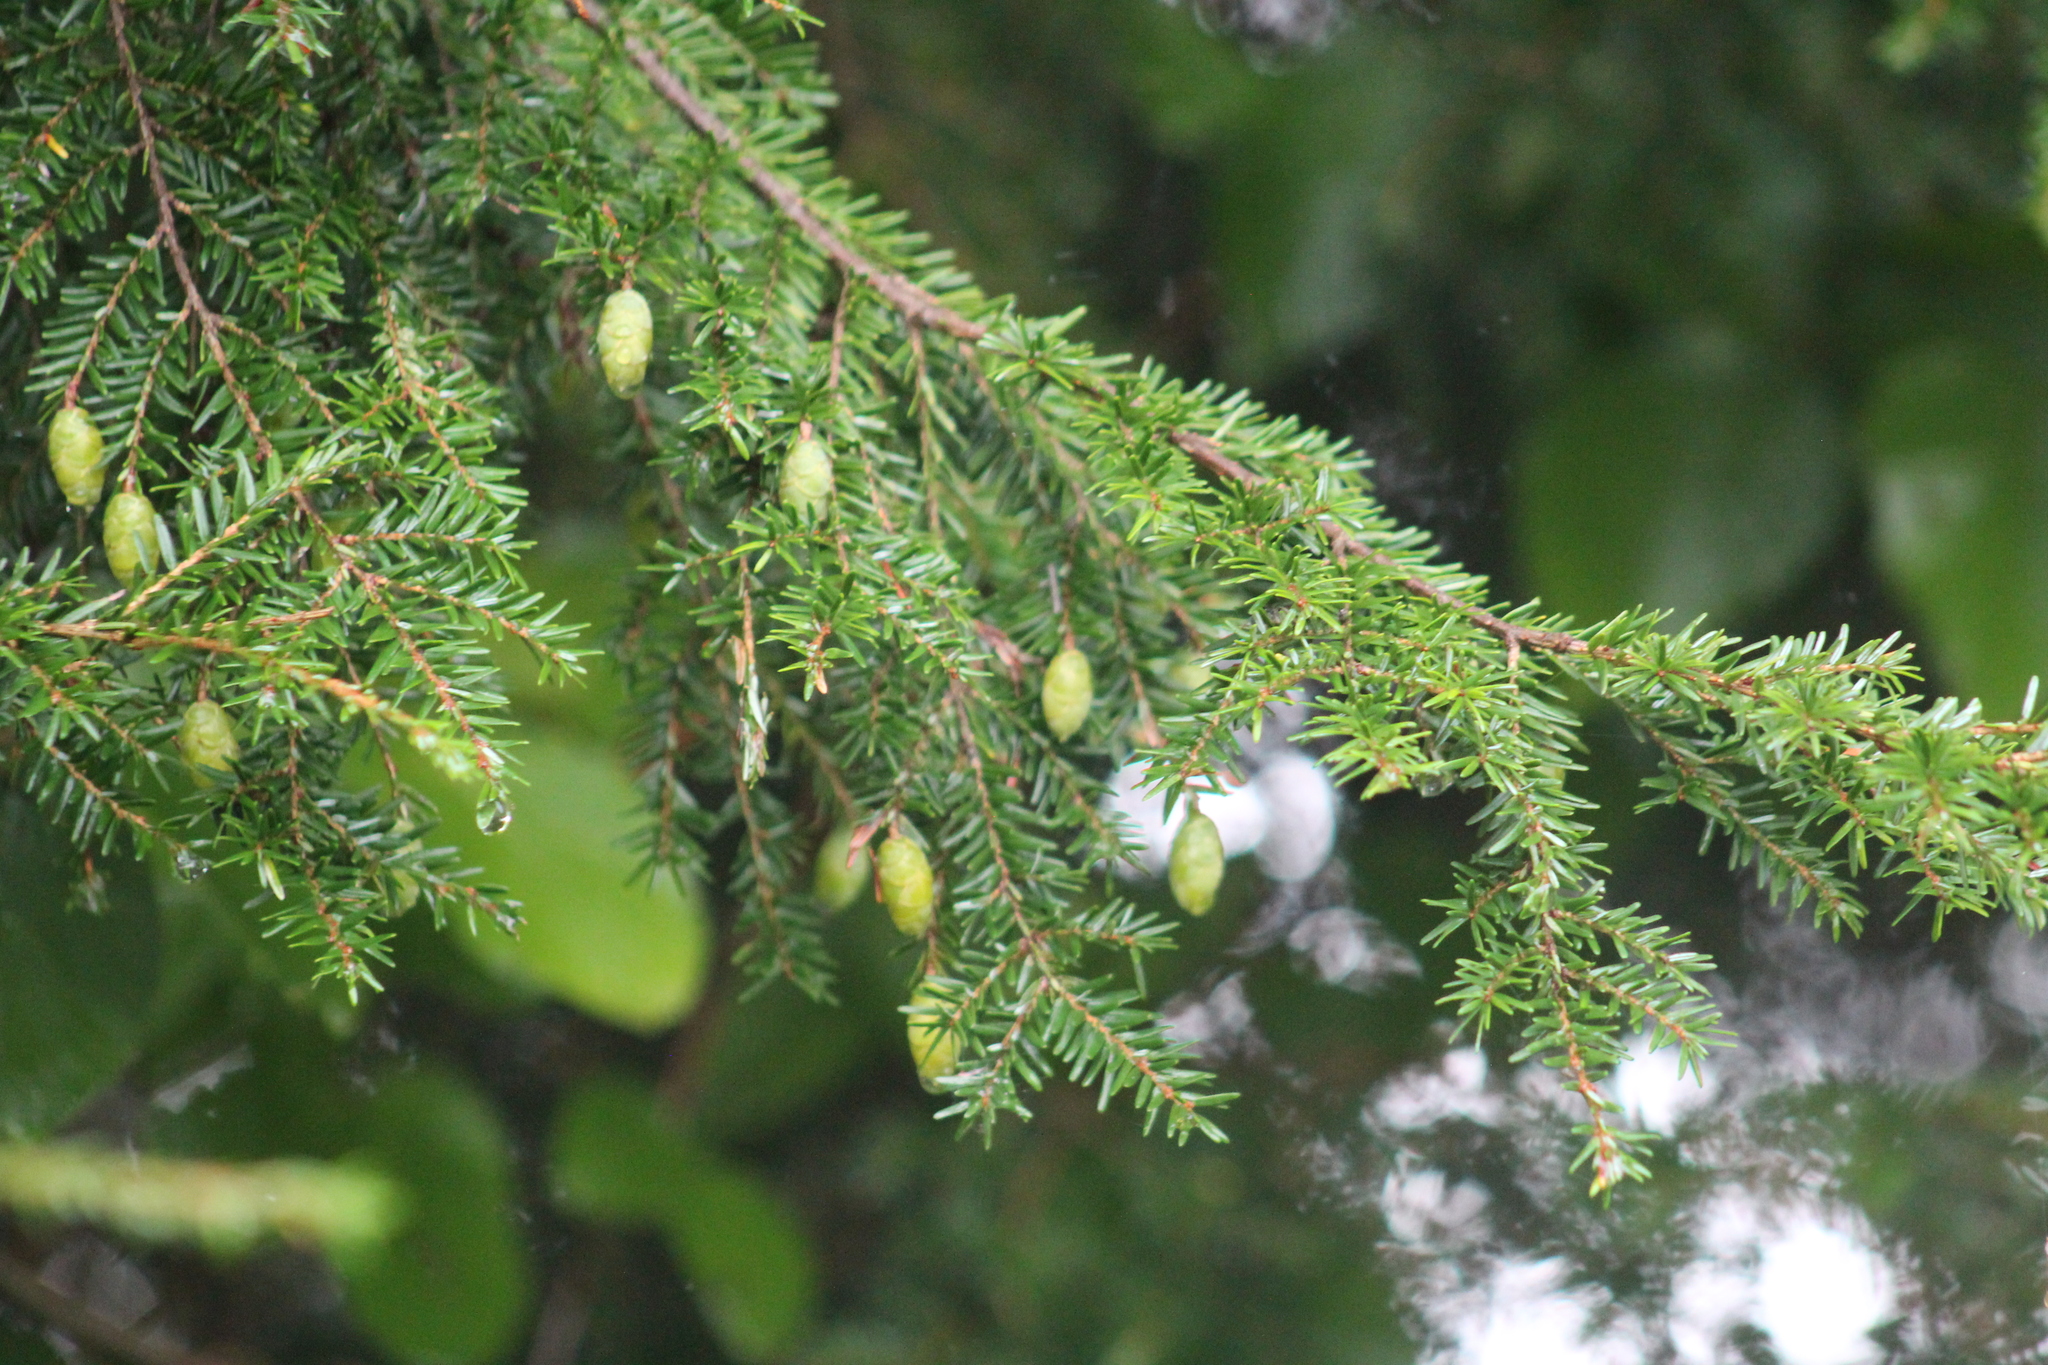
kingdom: Plantae
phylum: Tracheophyta
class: Pinopsida
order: Pinales
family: Pinaceae
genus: Tsuga
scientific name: Tsuga canadensis
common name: Eastern hemlock
